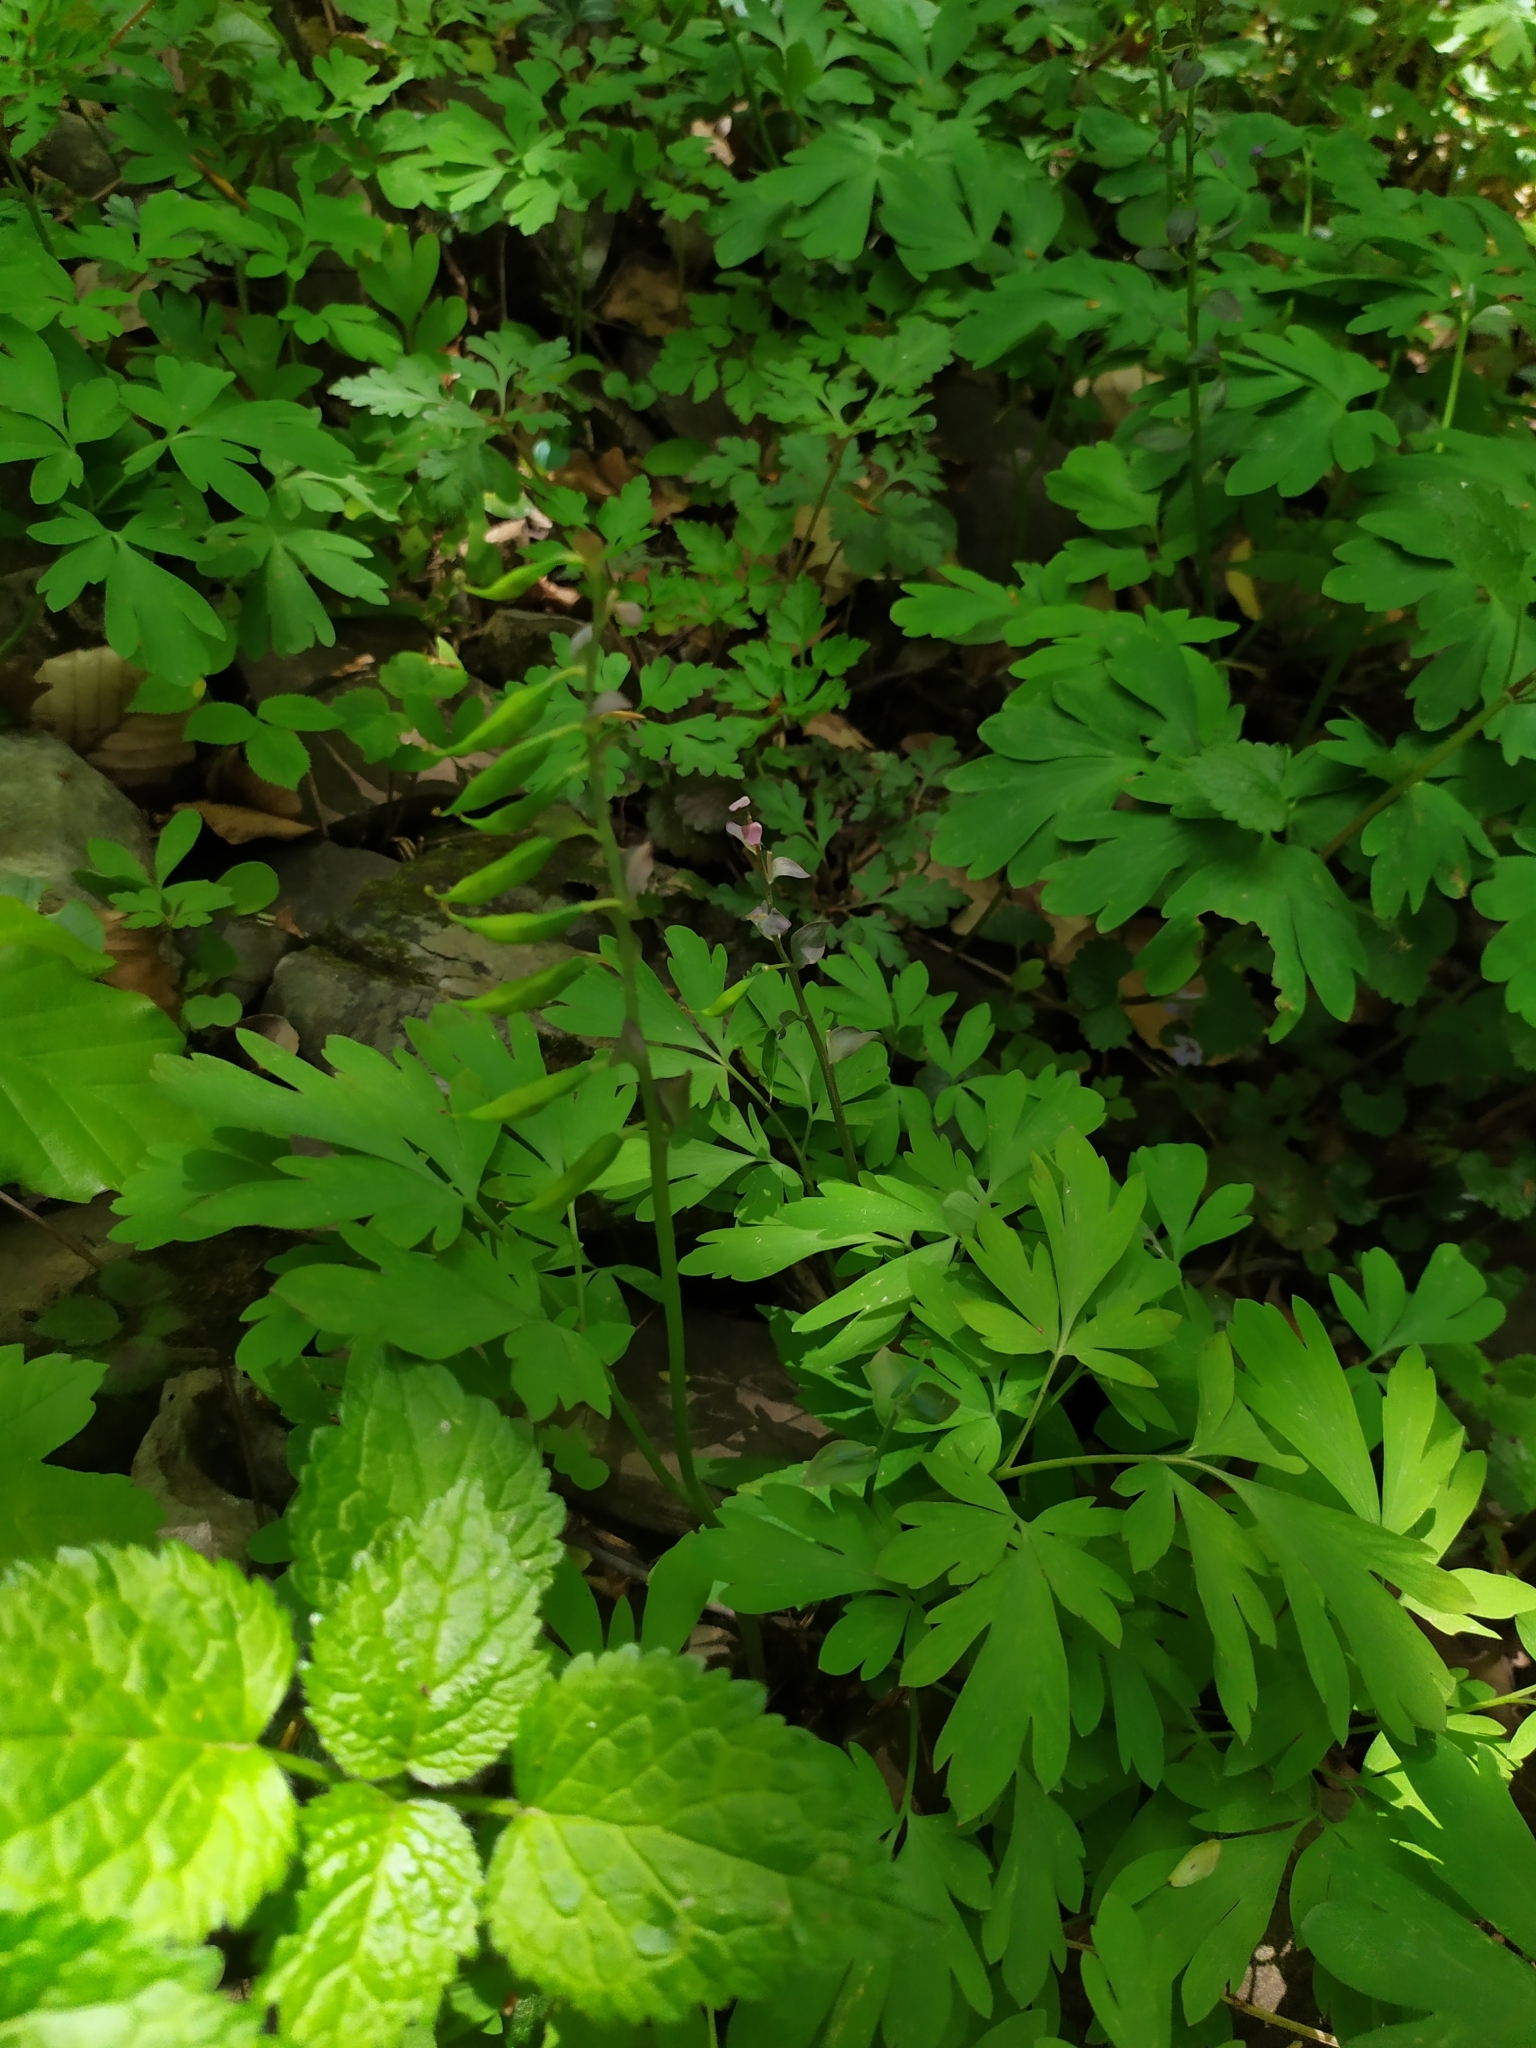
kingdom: Plantae
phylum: Tracheophyta
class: Magnoliopsida
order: Ranunculales
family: Papaveraceae
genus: Corydalis
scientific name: Corydalis cava
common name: Hollowroot
